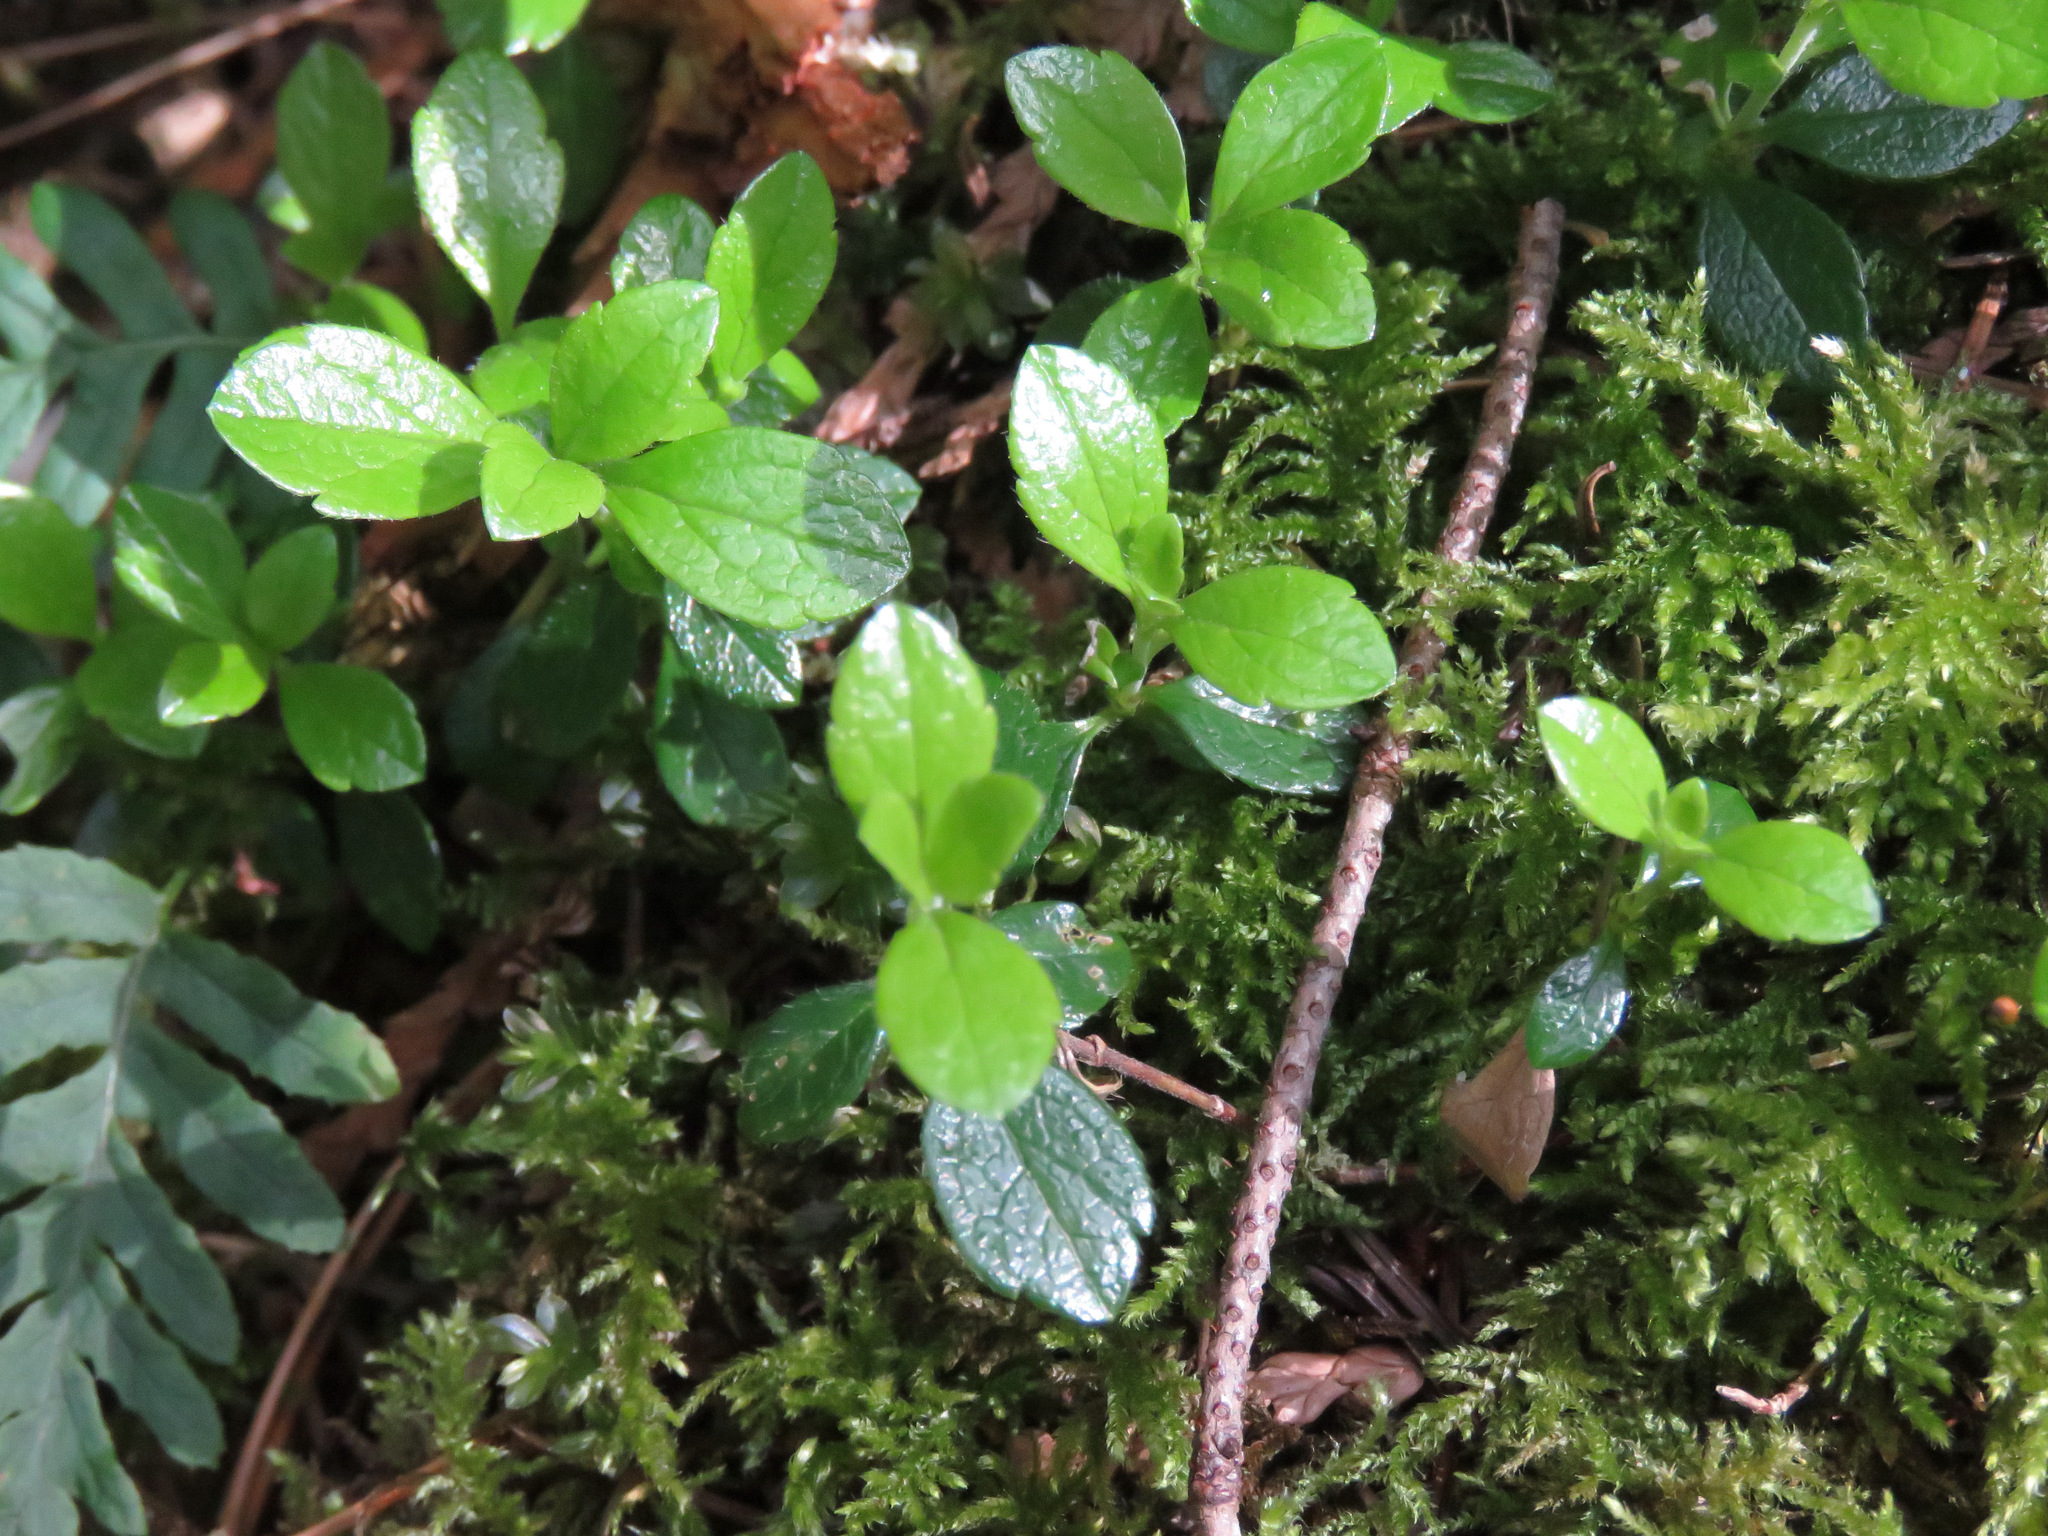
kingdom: Plantae
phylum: Tracheophyta
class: Magnoliopsida
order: Dipsacales
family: Caprifoliaceae
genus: Linnaea
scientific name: Linnaea borealis
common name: Twinflower
